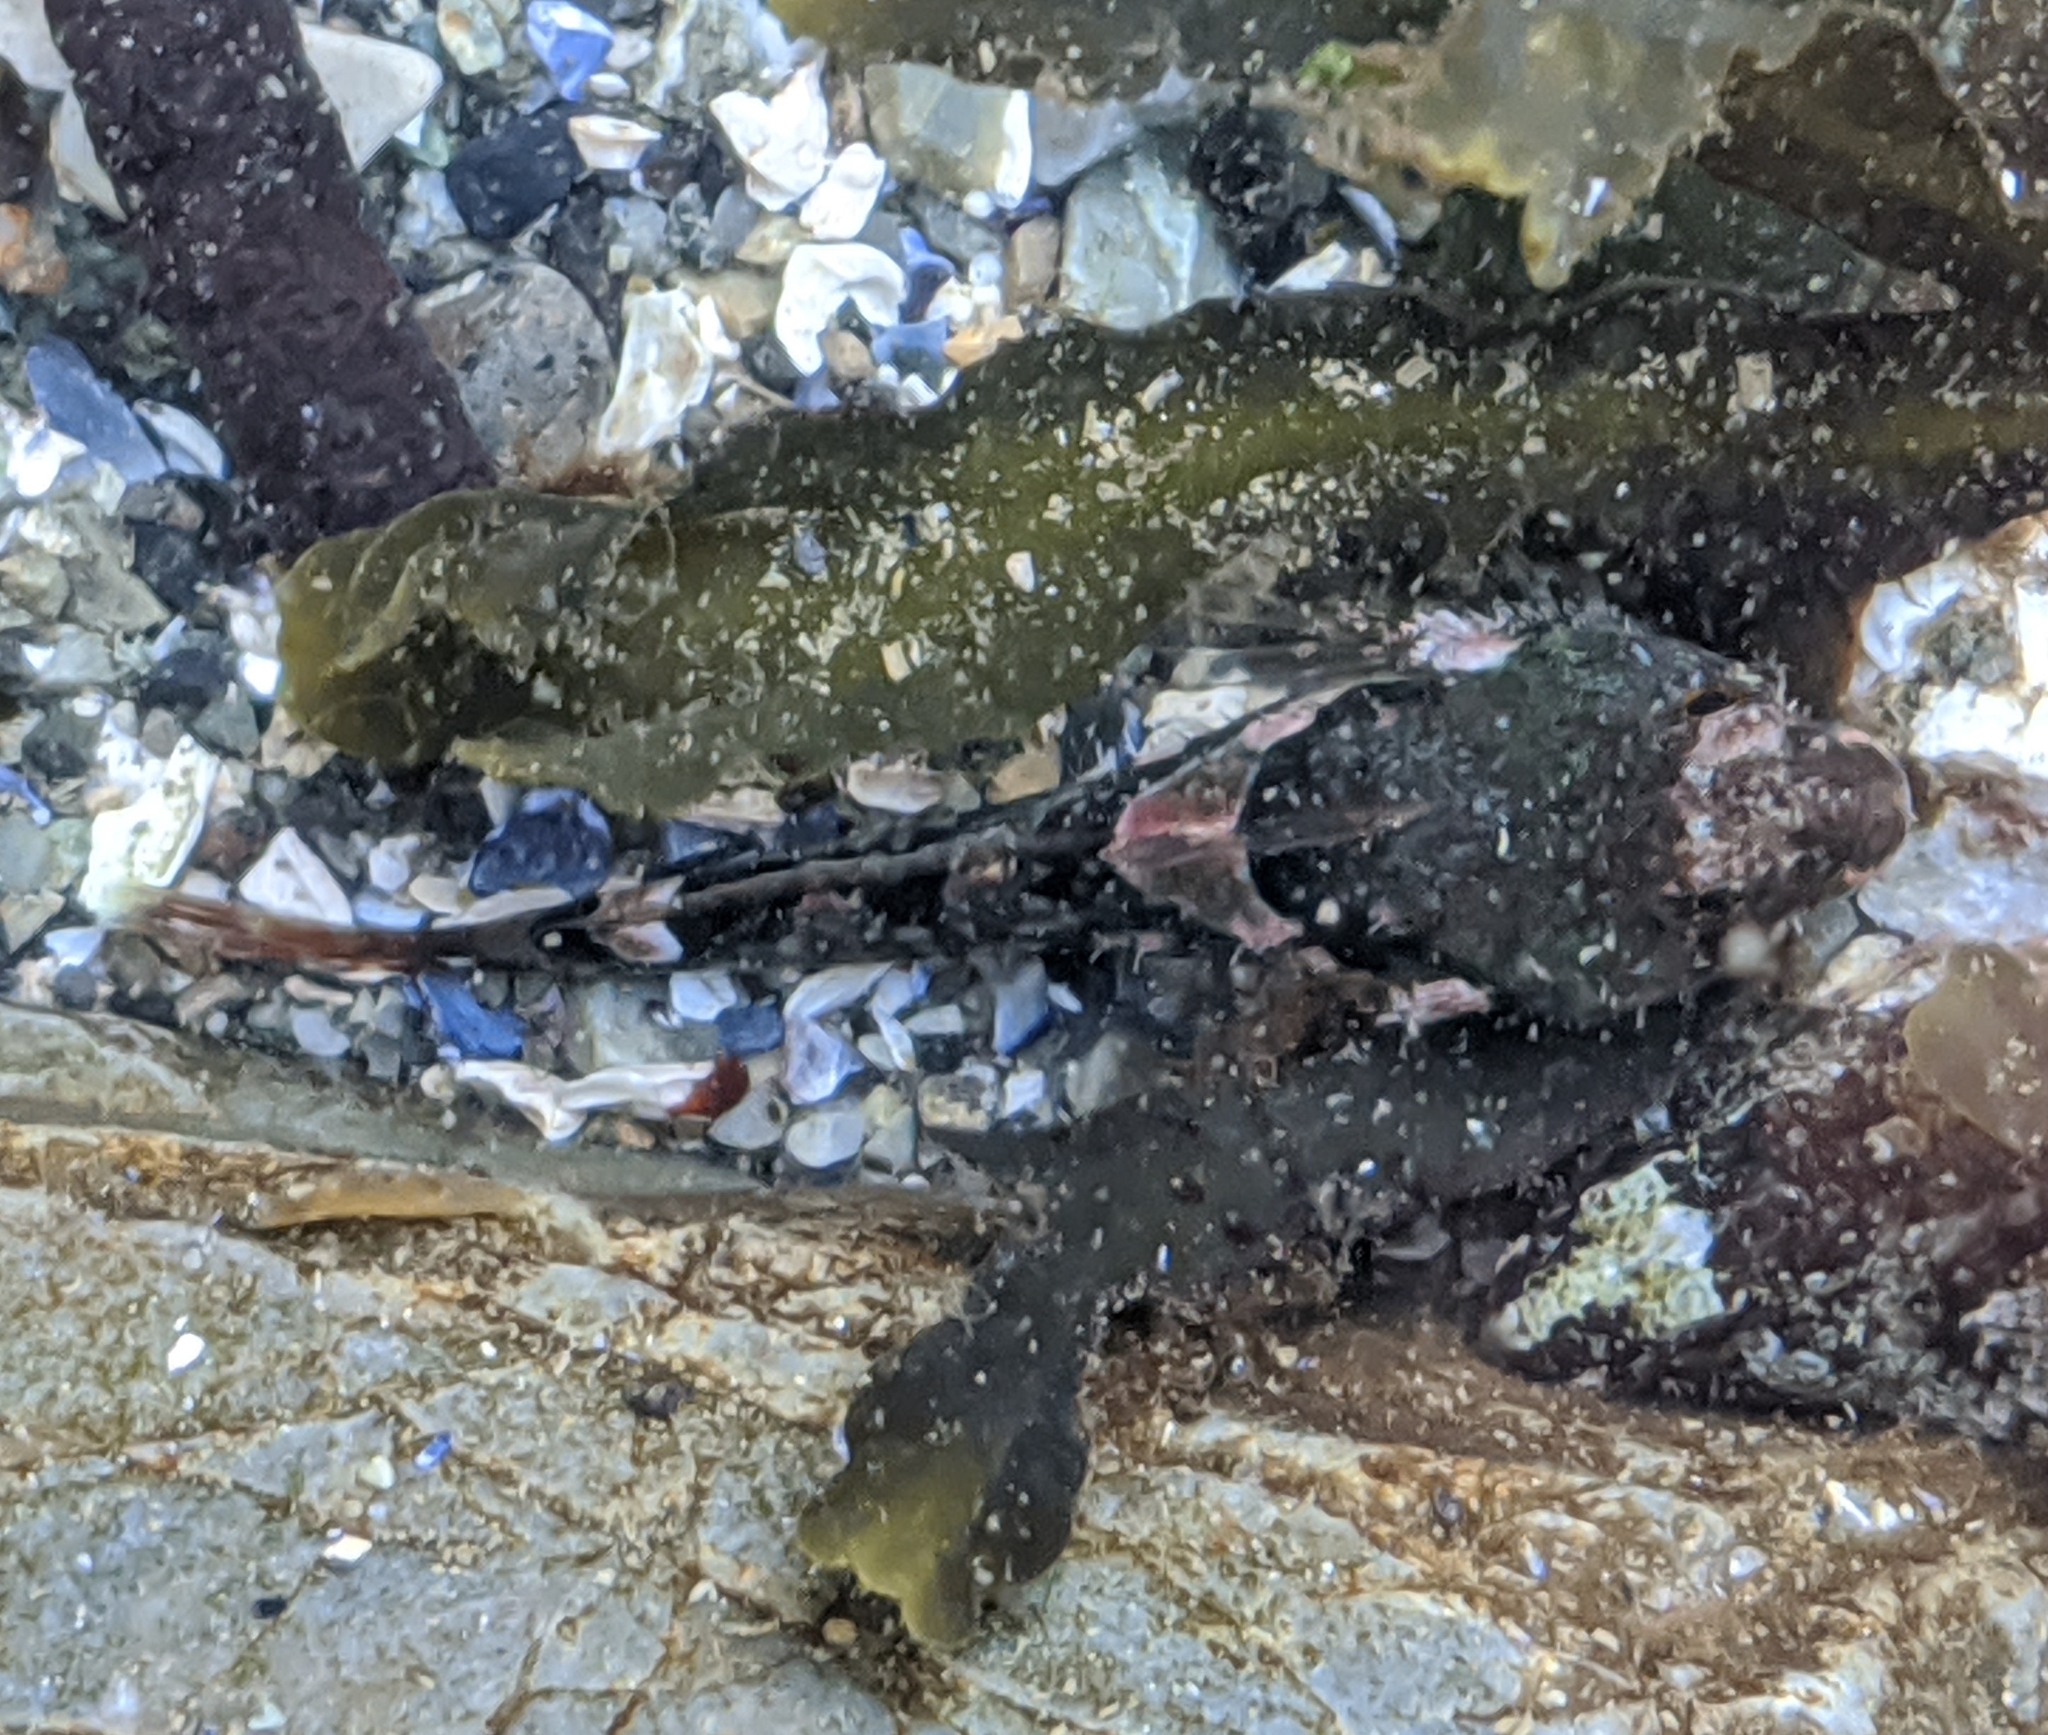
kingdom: Animalia
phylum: Chordata
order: Scorpaeniformes
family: Cottidae
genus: Oligocottus
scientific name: Oligocottus maculosus
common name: Tidepool sculpin
